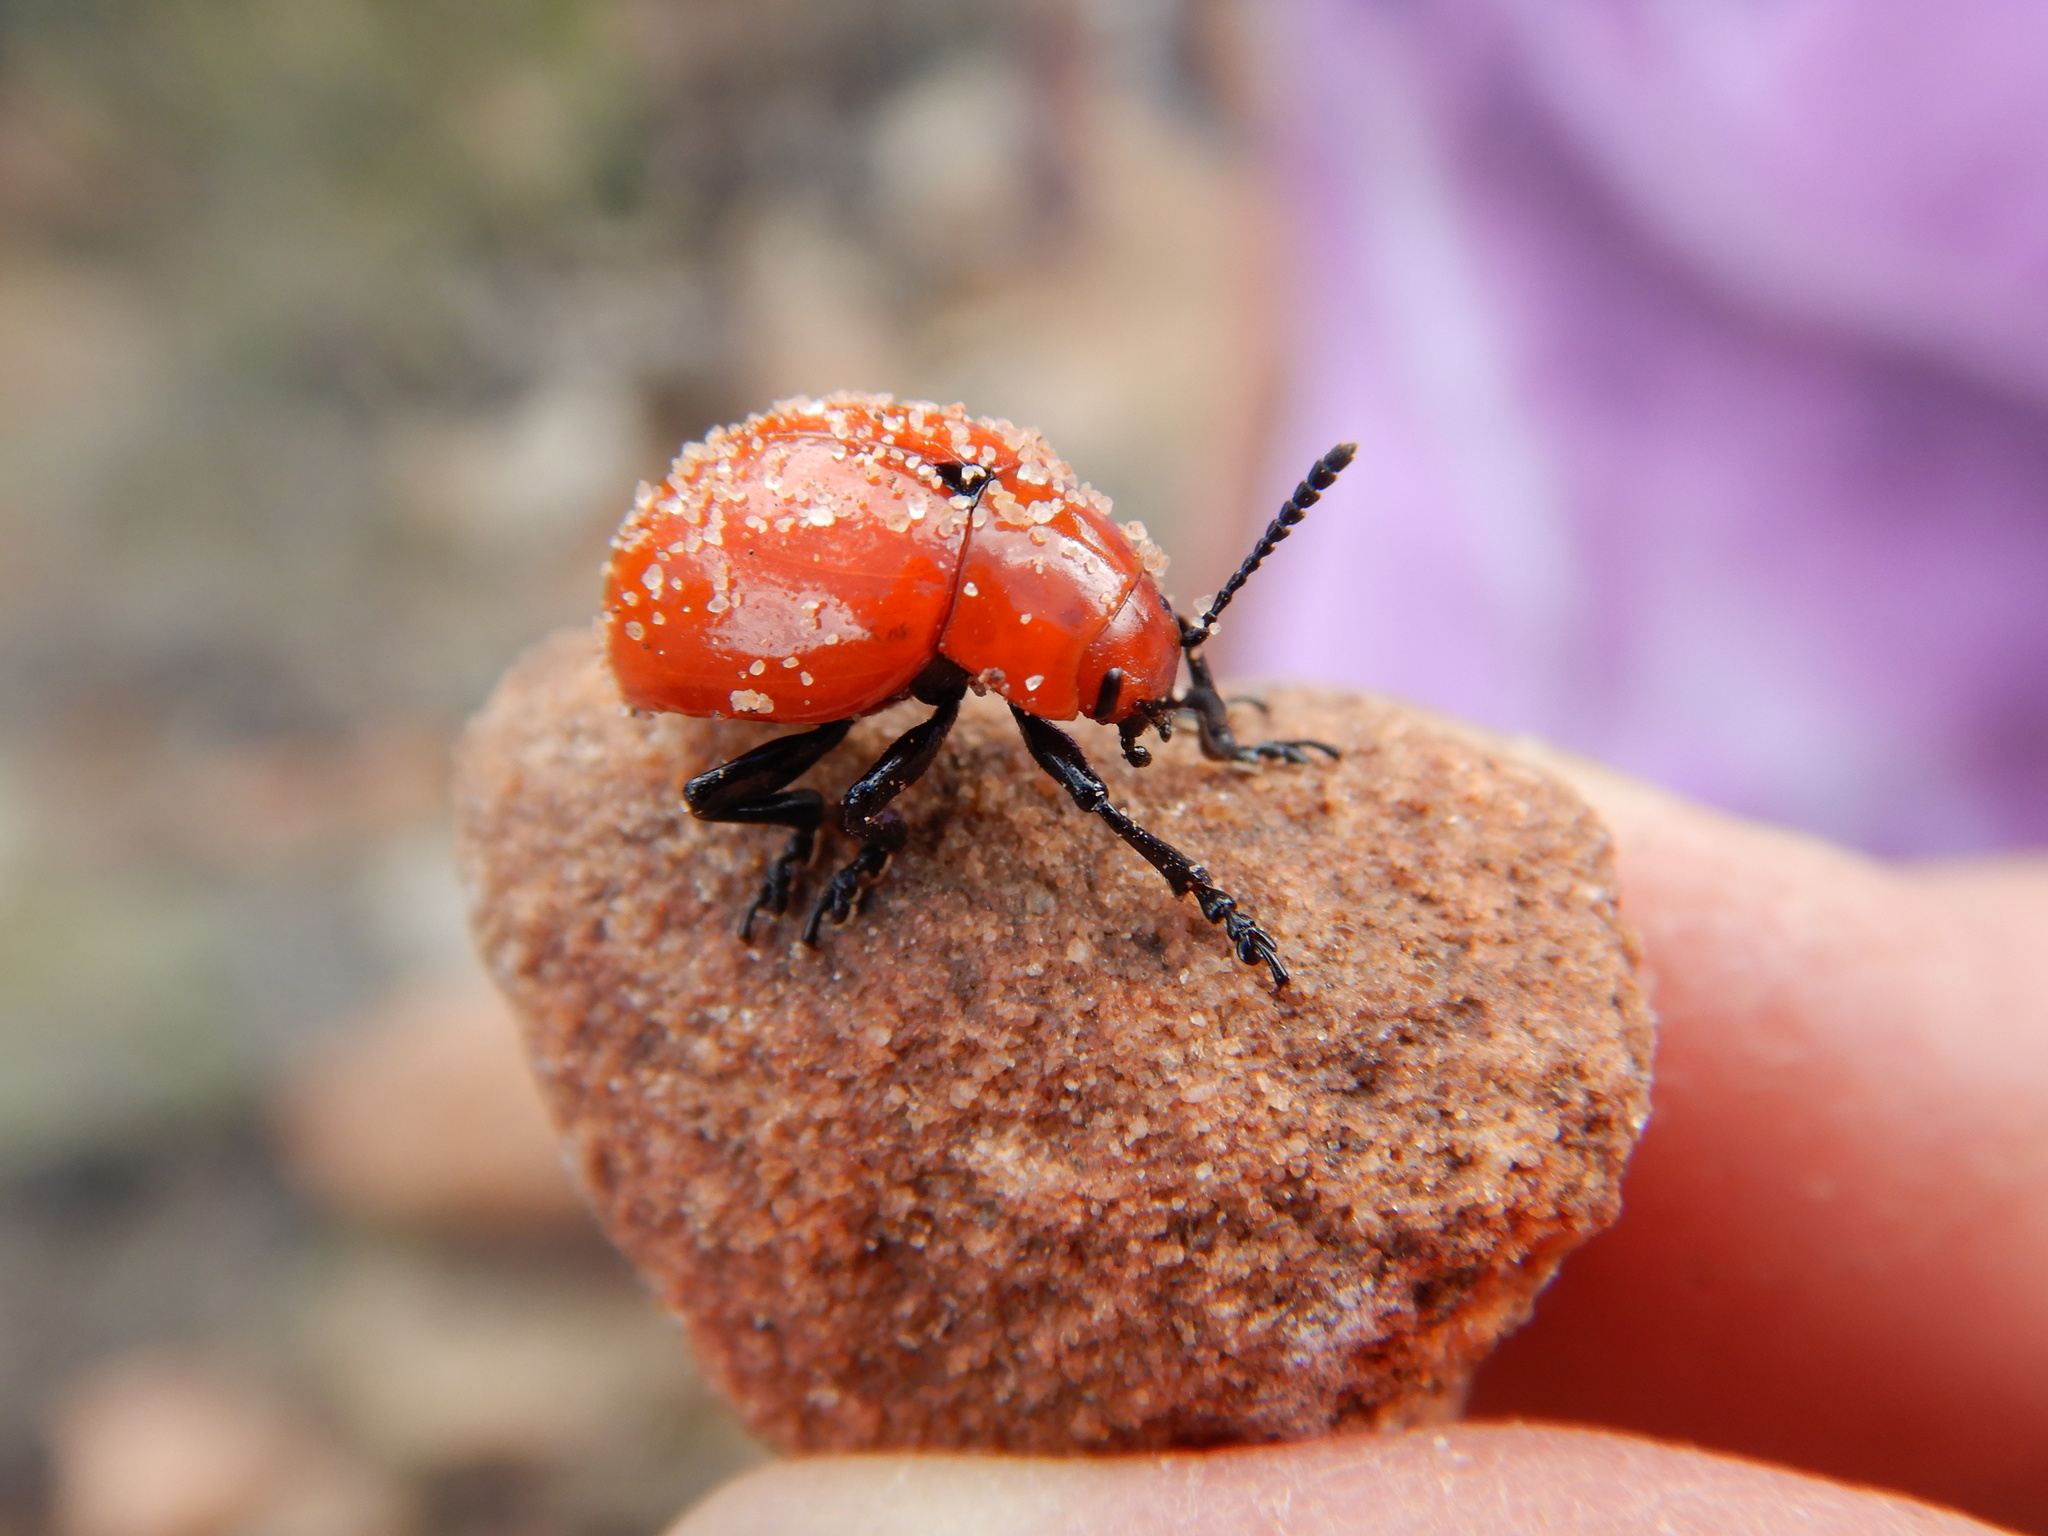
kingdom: Animalia
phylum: Arthropoda
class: Insecta
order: Coleoptera
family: Chrysomelidae
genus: Leptinotarsa
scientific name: Leptinotarsa rubiginosa
